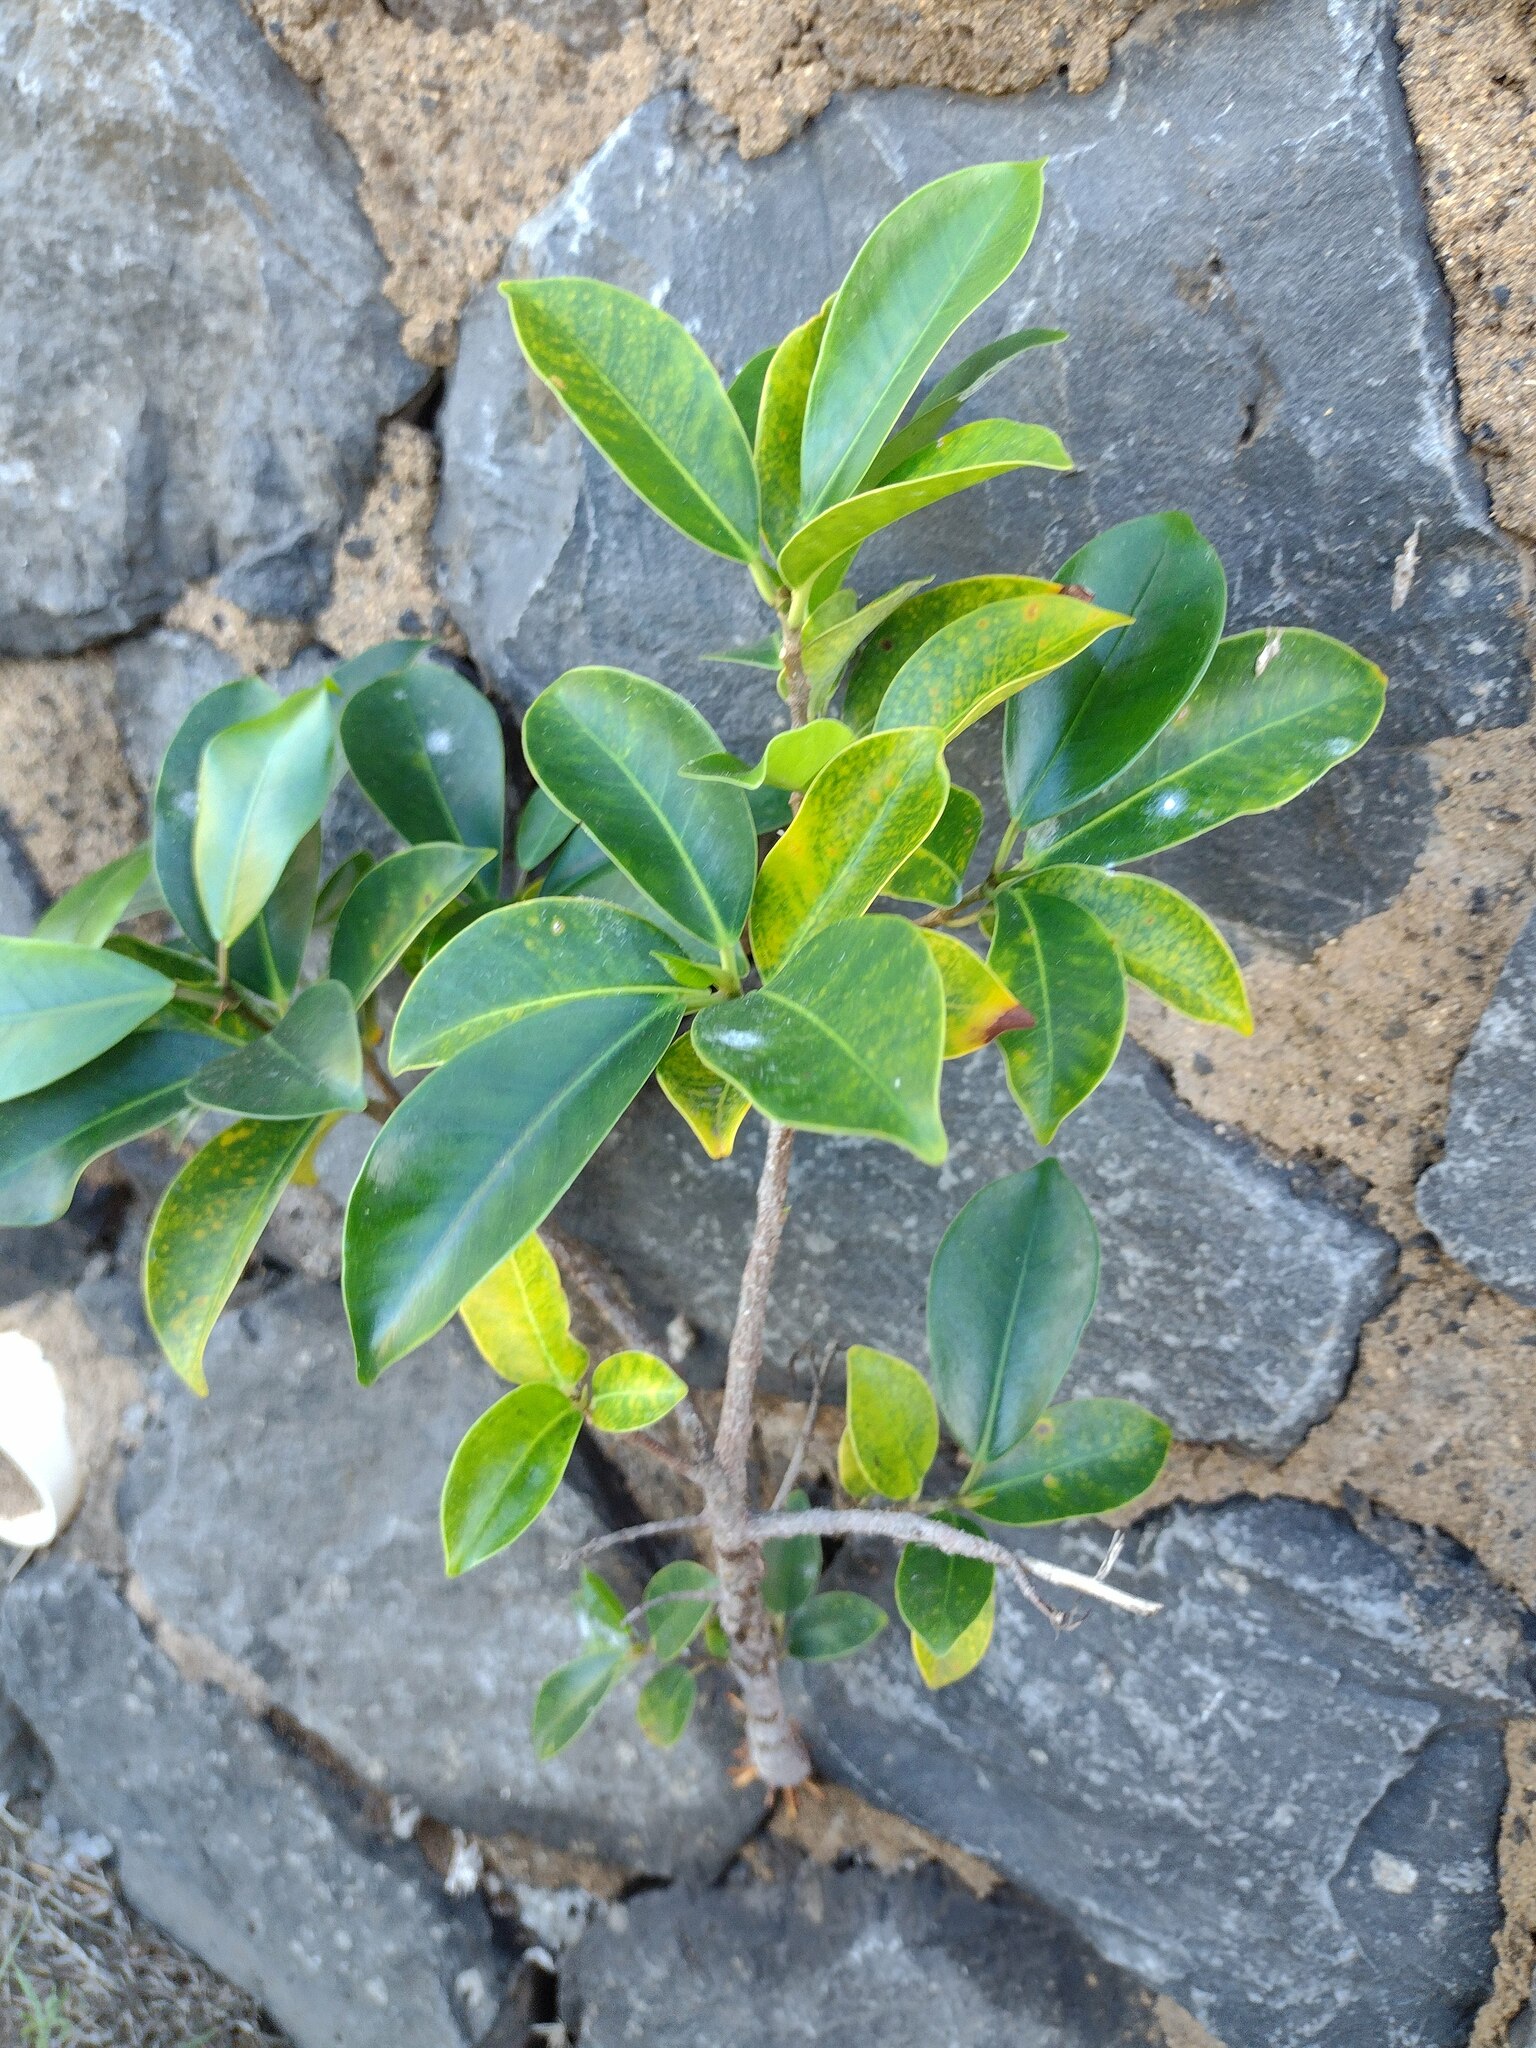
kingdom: Plantae
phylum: Tracheophyta
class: Magnoliopsida
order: Rosales
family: Moraceae
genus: Ficus
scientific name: Ficus microcarpa
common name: Chinese banyan
